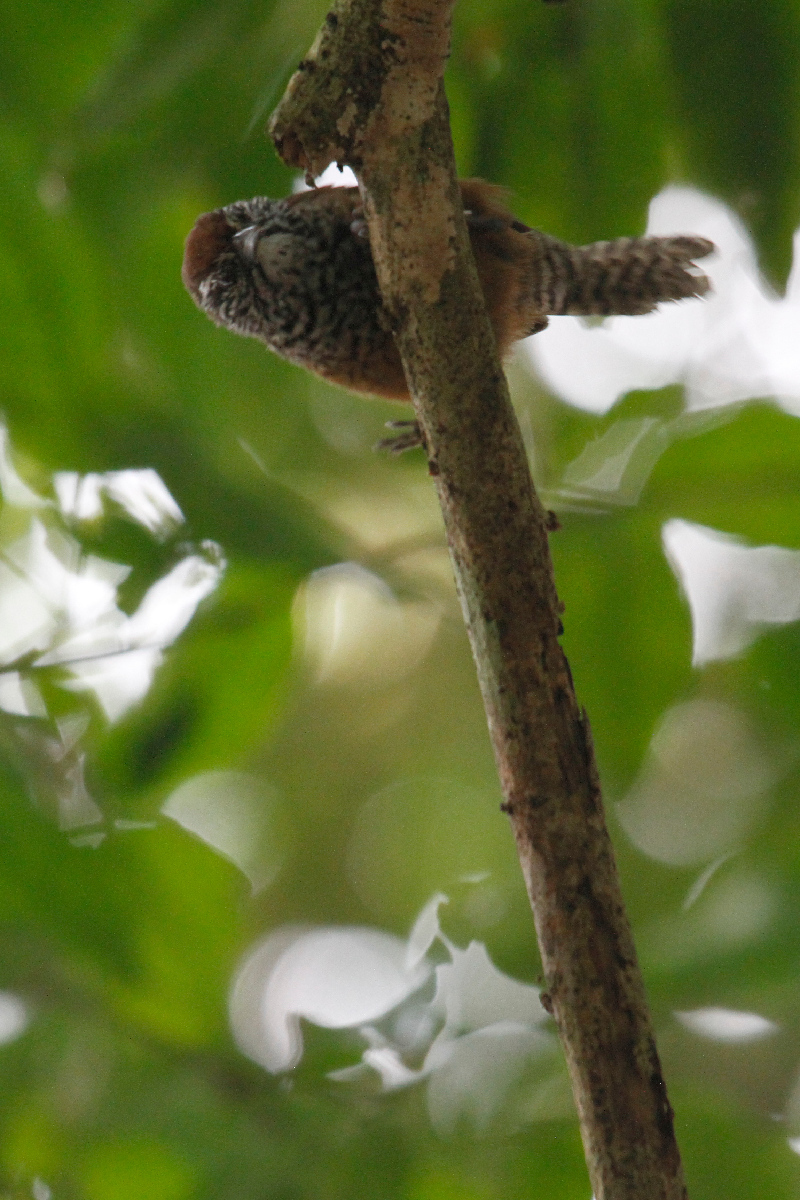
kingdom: Animalia
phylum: Chordata
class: Aves
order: Passeriformes
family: Troglodytidae
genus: Pheugopedius
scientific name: Pheugopedius maculipectus
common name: Spot-breasted wren
